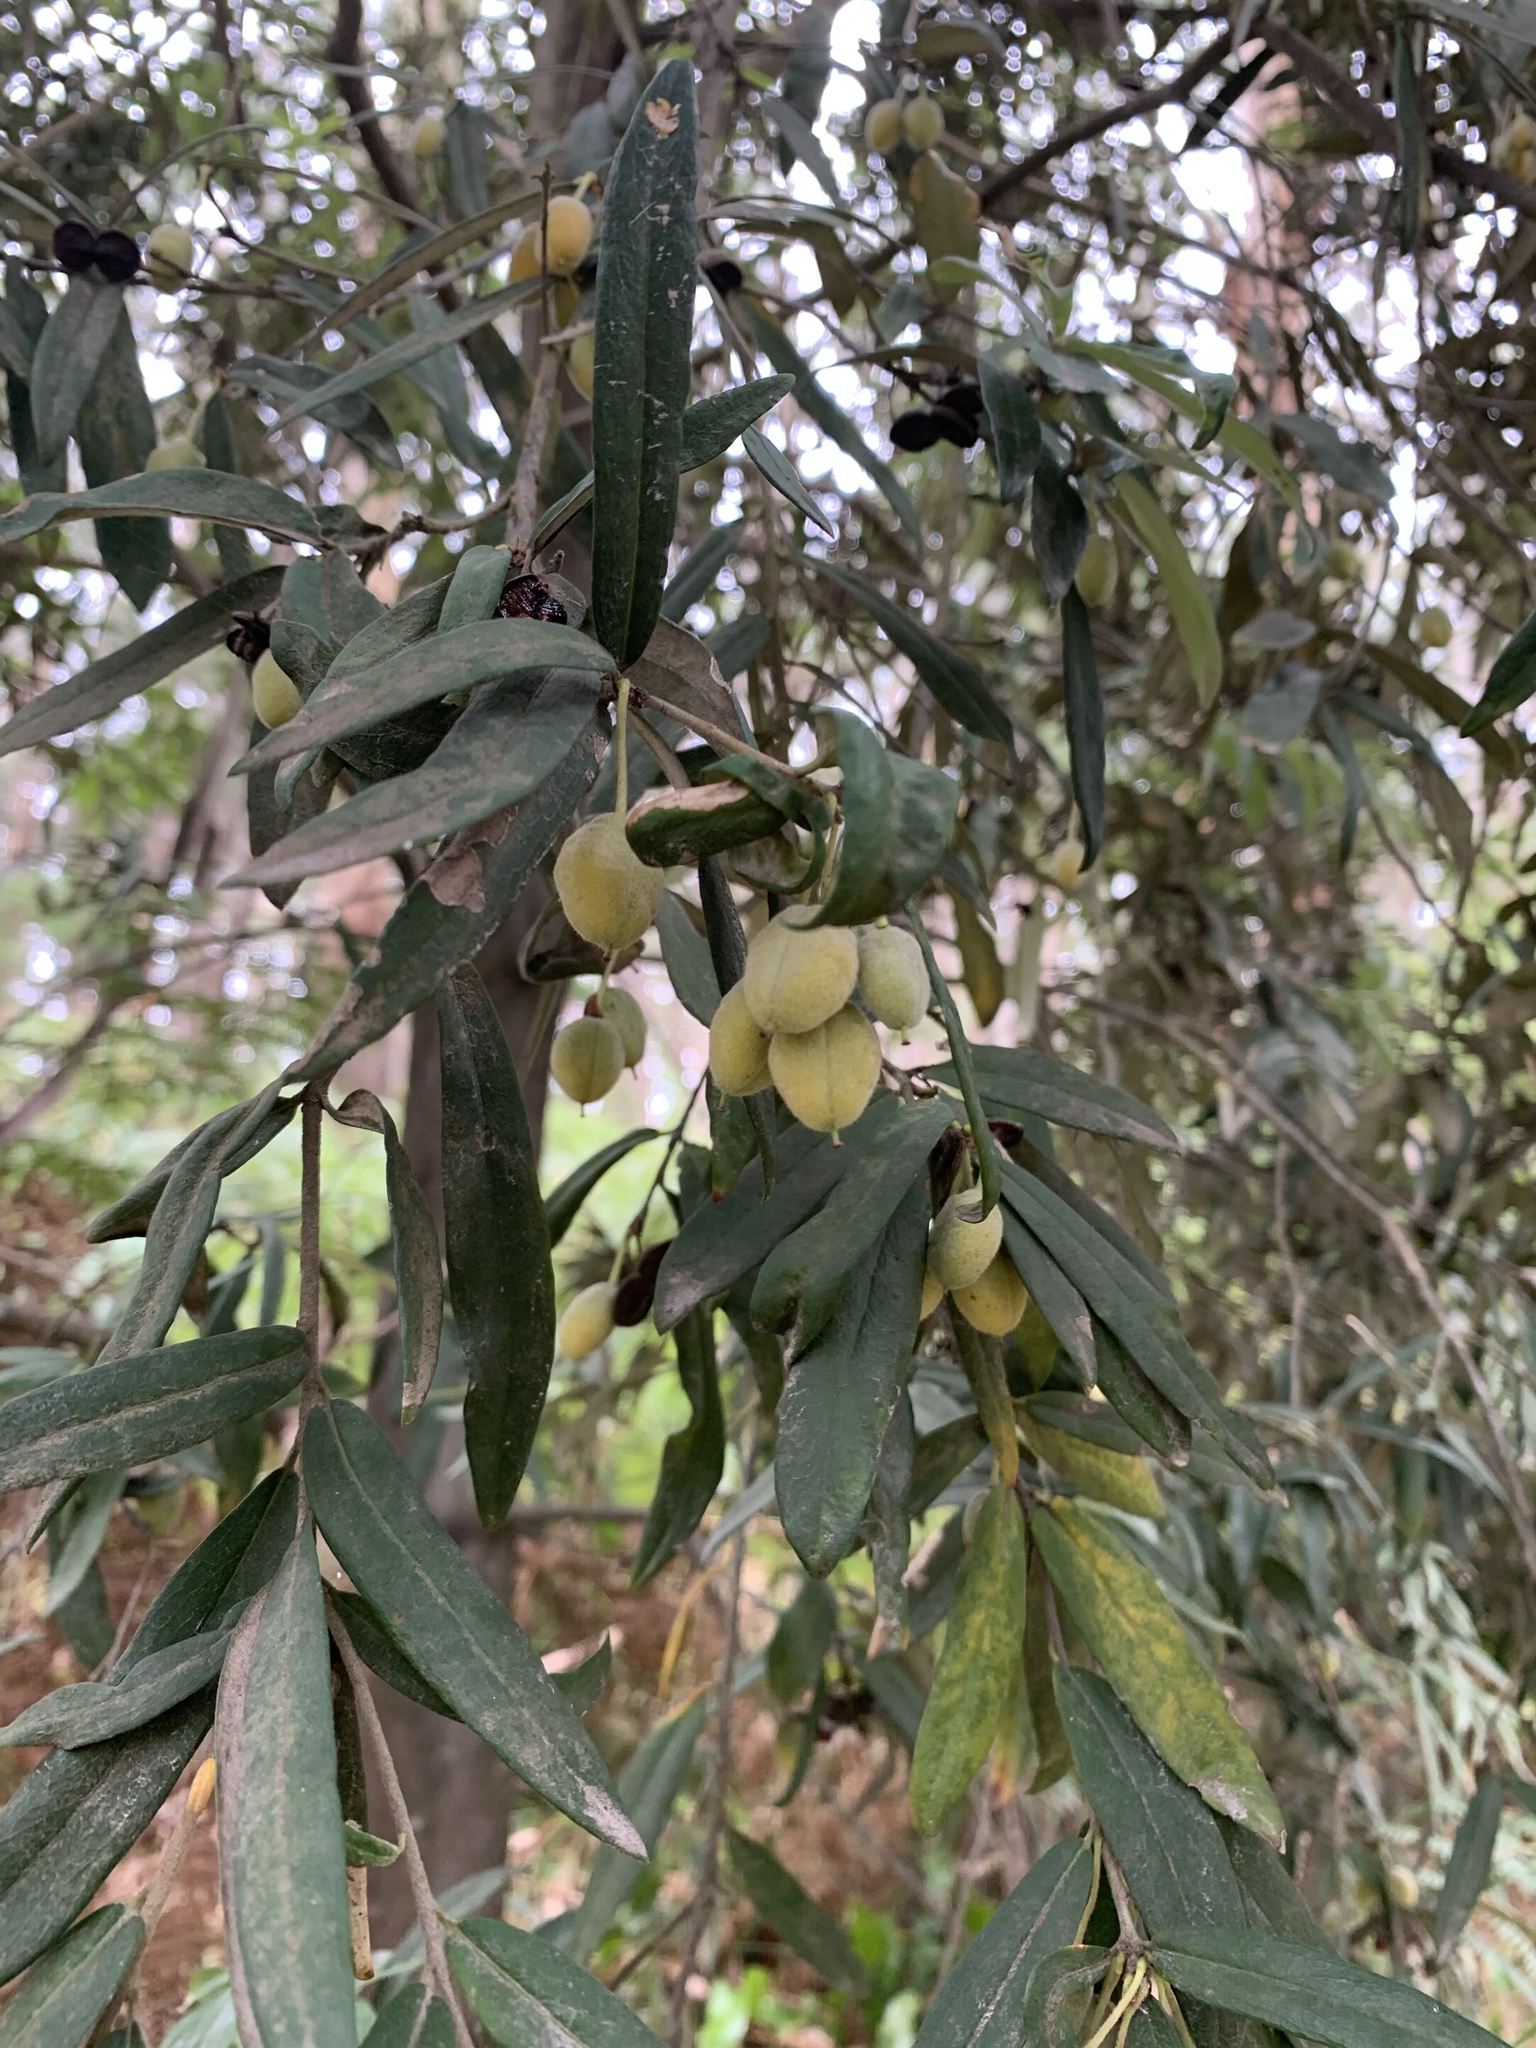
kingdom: Plantae
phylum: Tracheophyta
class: Magnoliopsida
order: Apiales
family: Pittosporaceae
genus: Pittosporum
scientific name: Pittosporum bicolor
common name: Tallowwood
